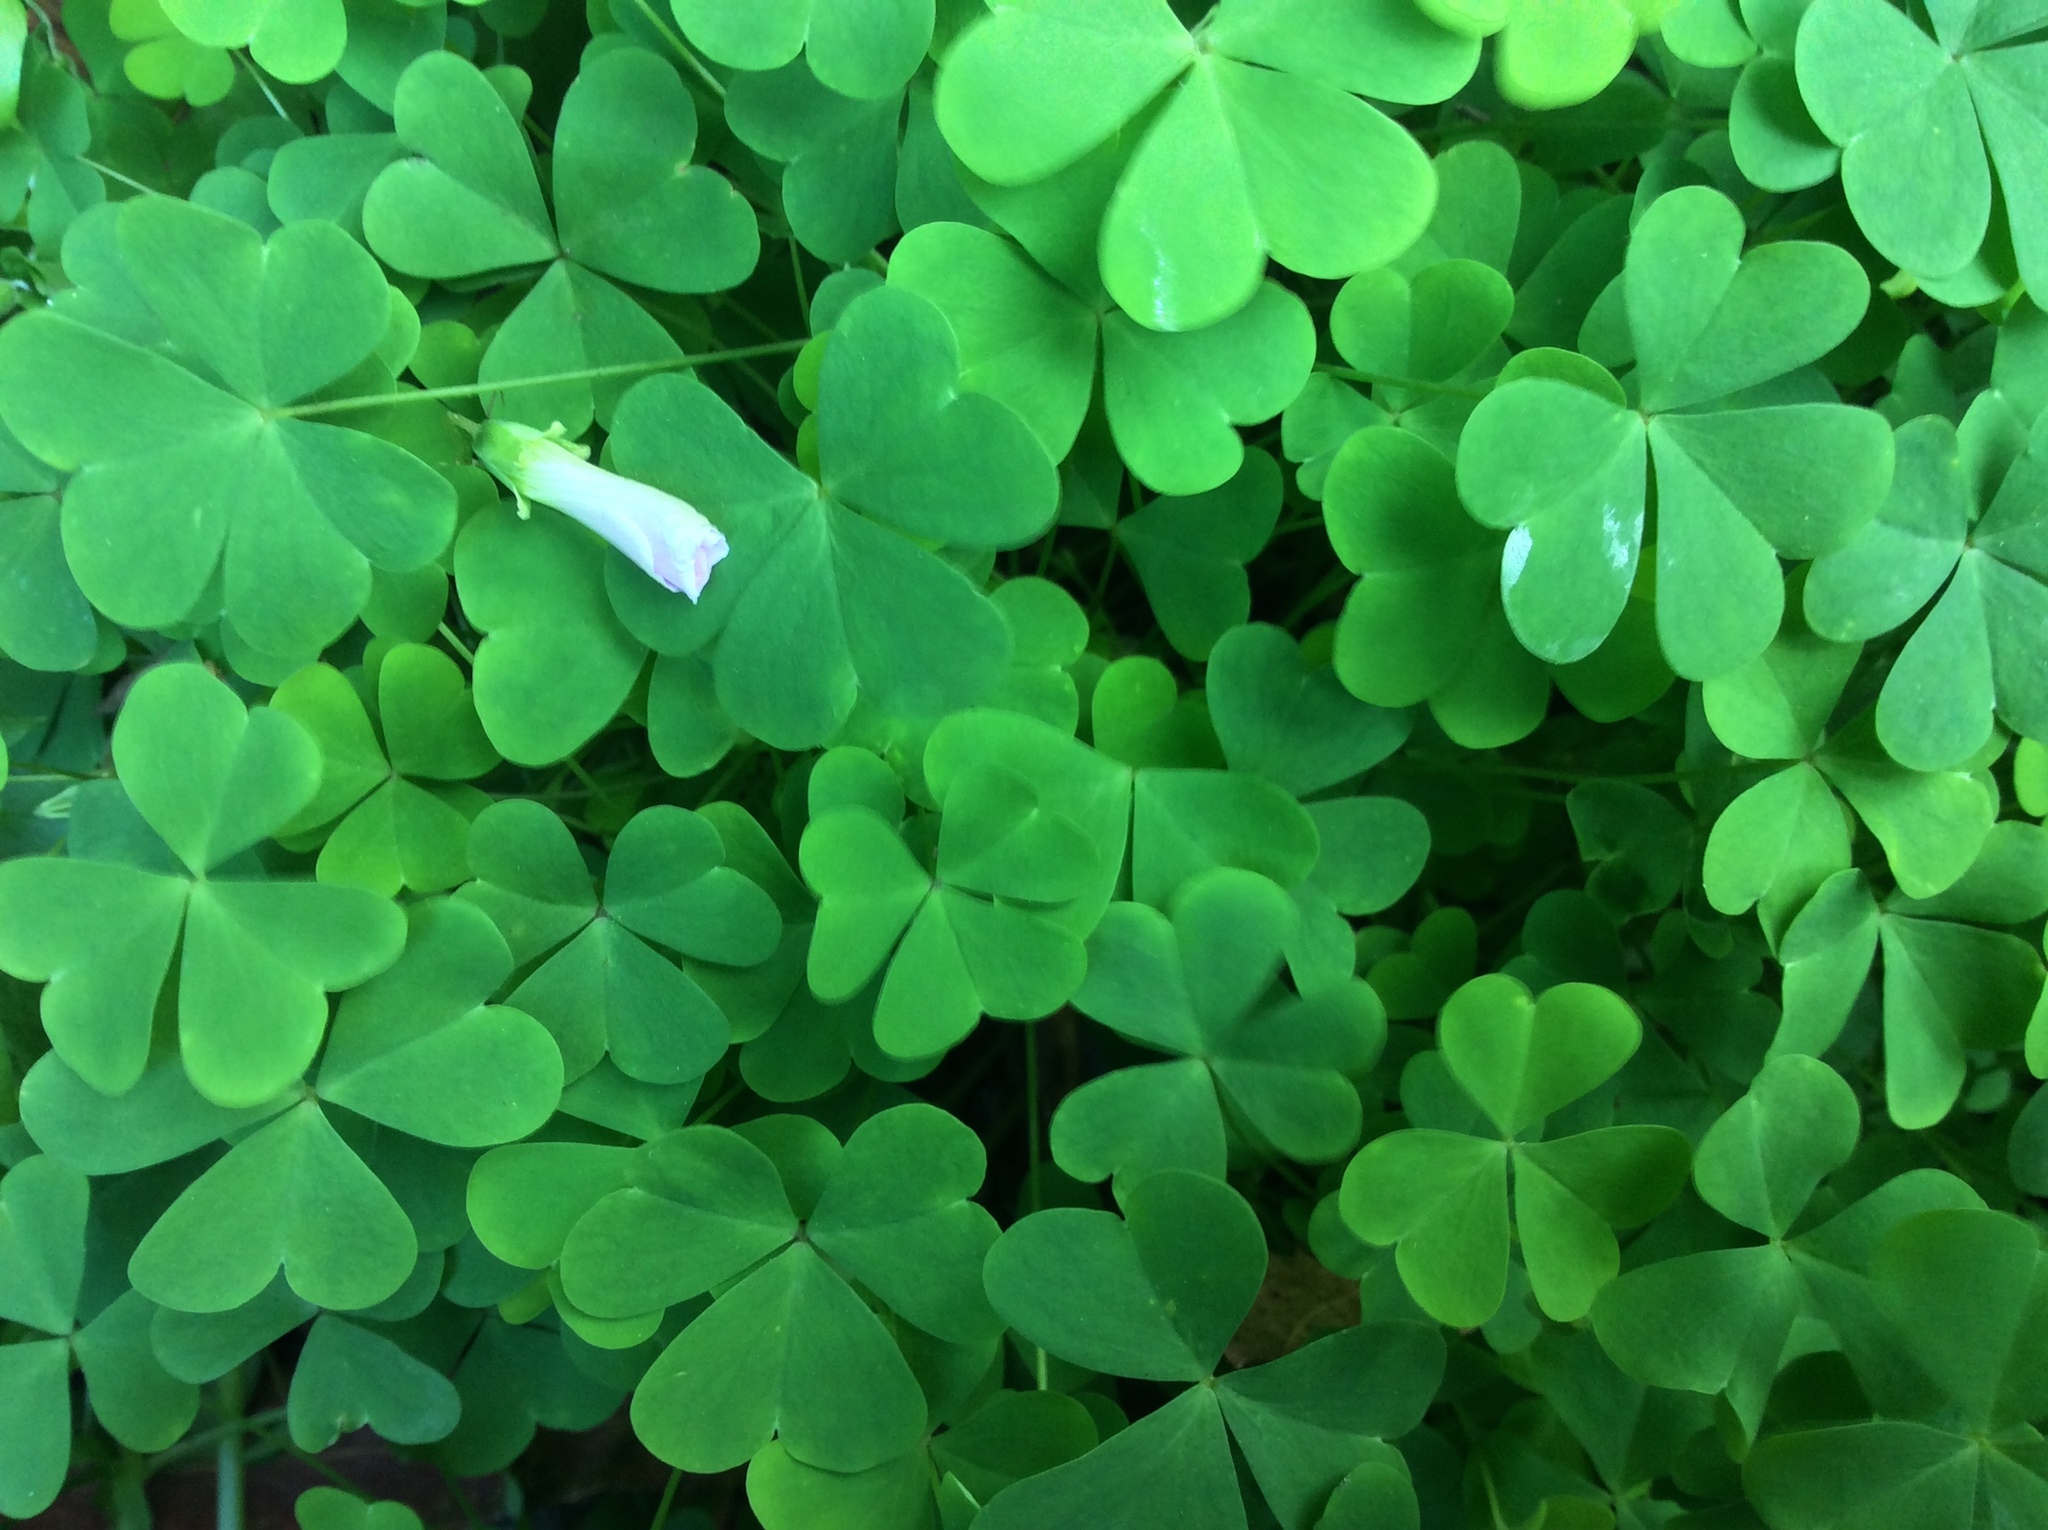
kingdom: Plantae
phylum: Tracheophyta
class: Magnoliopsida
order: Oxalidales
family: Oxalidaceae
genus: Oxalis
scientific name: Oxalis incarnata
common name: Pale pink-sorrel
